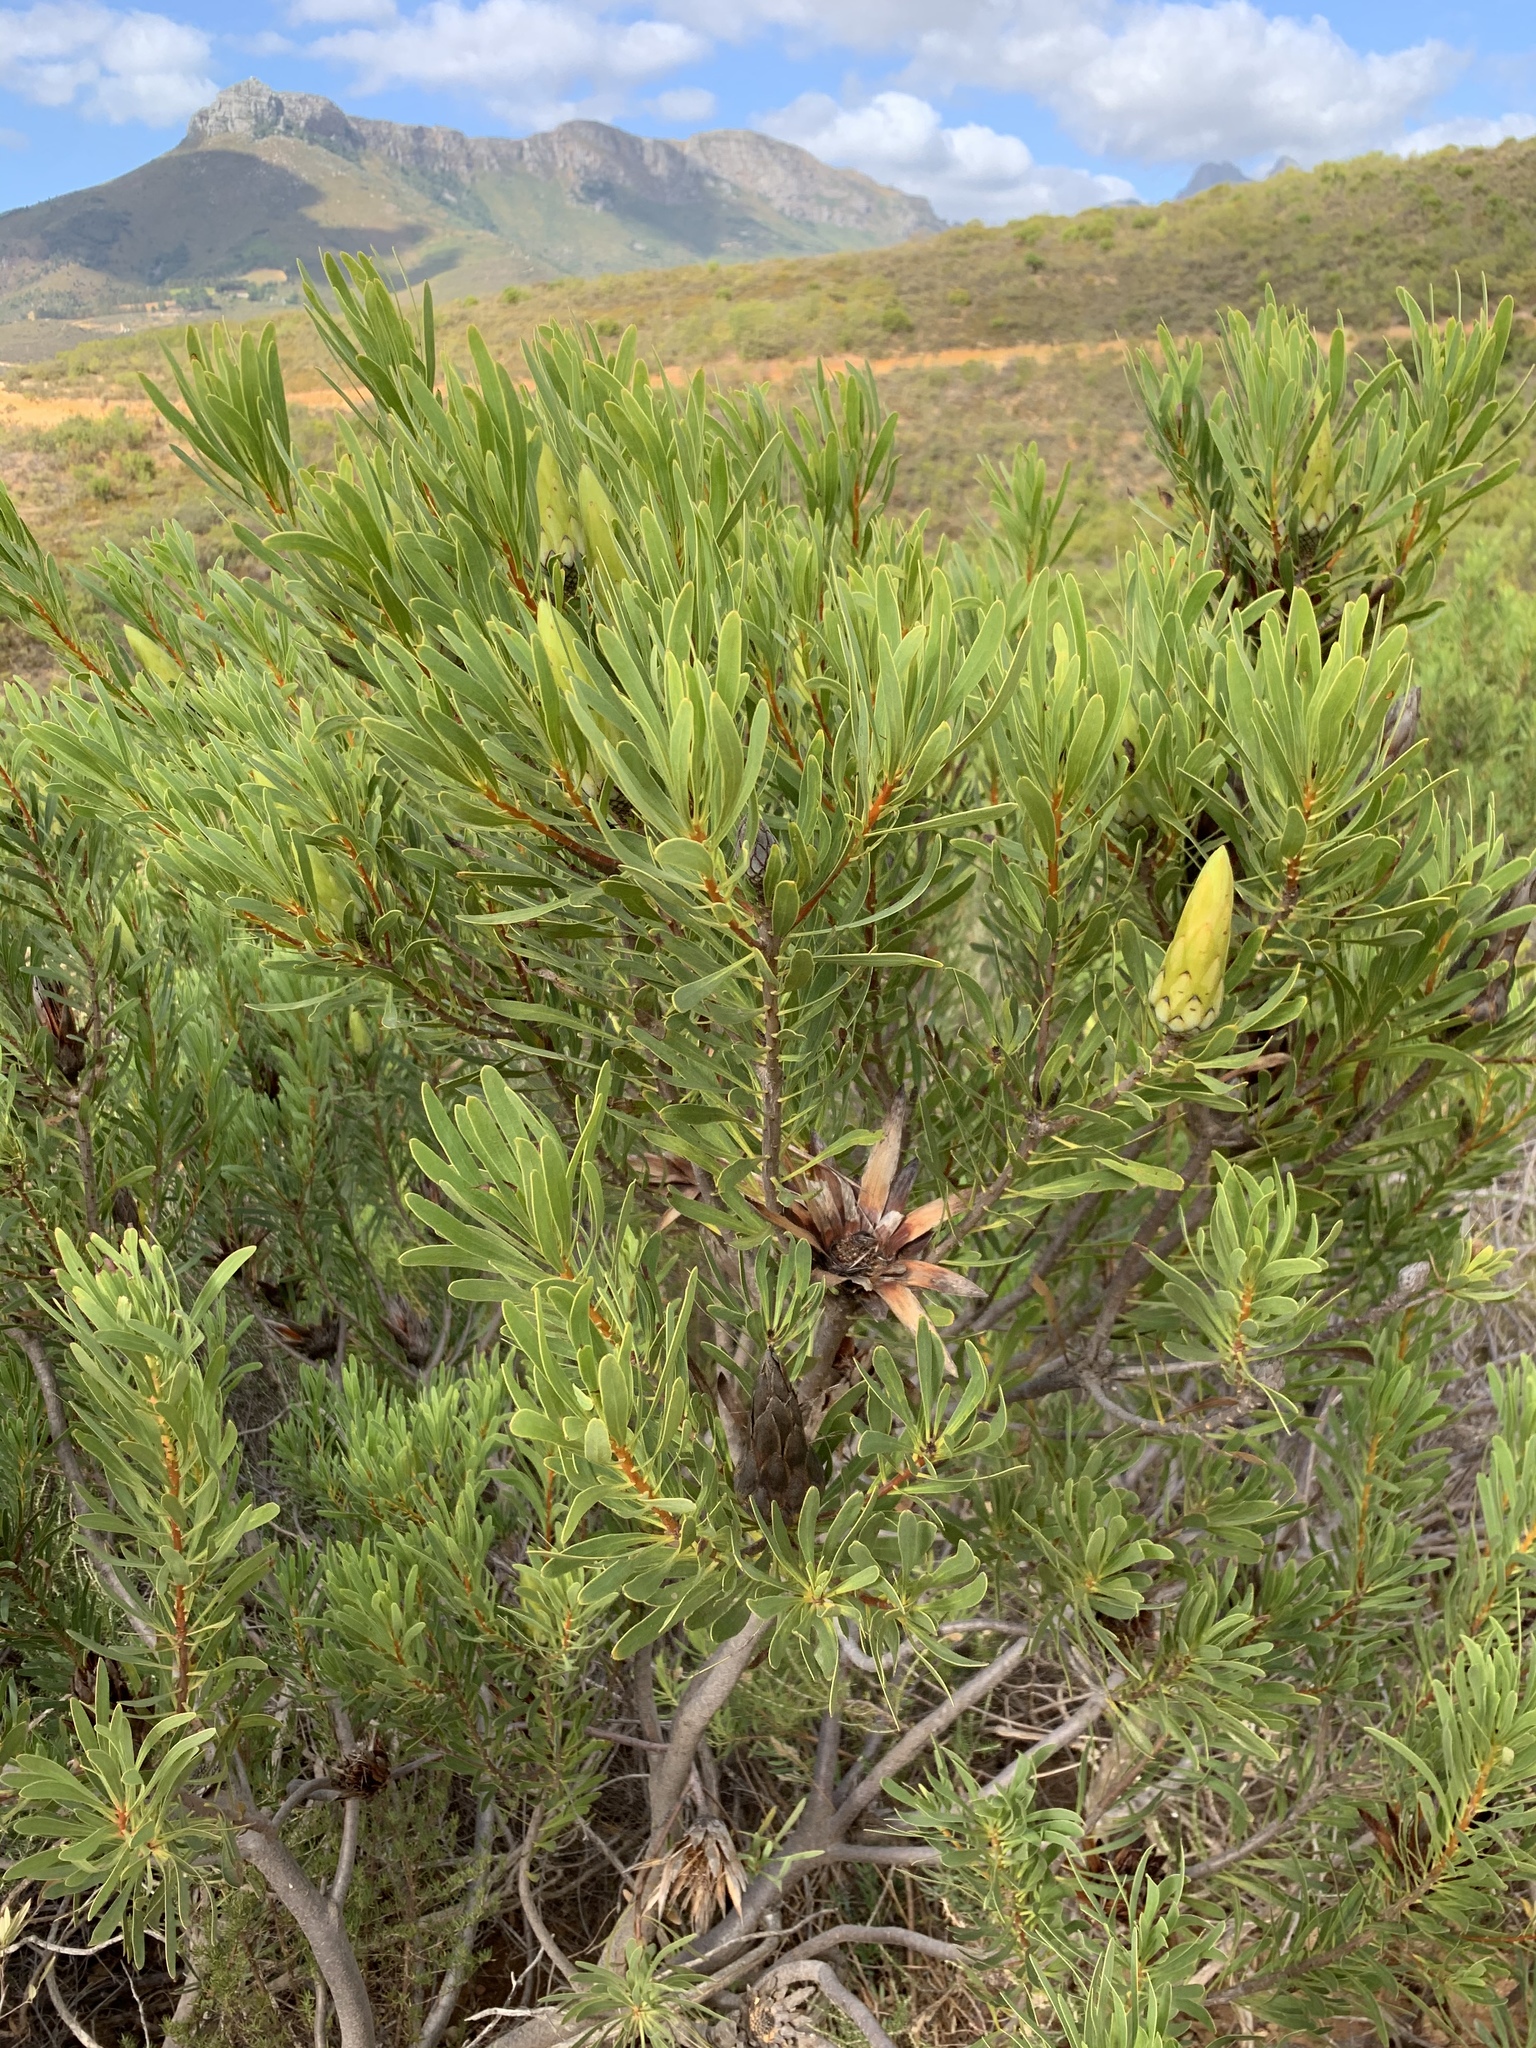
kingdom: Plantae
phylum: Tracheophyta
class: Magnoliopsida
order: Proteales
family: Proteaceae
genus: Protea
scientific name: Protea repens
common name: Sugarbush
